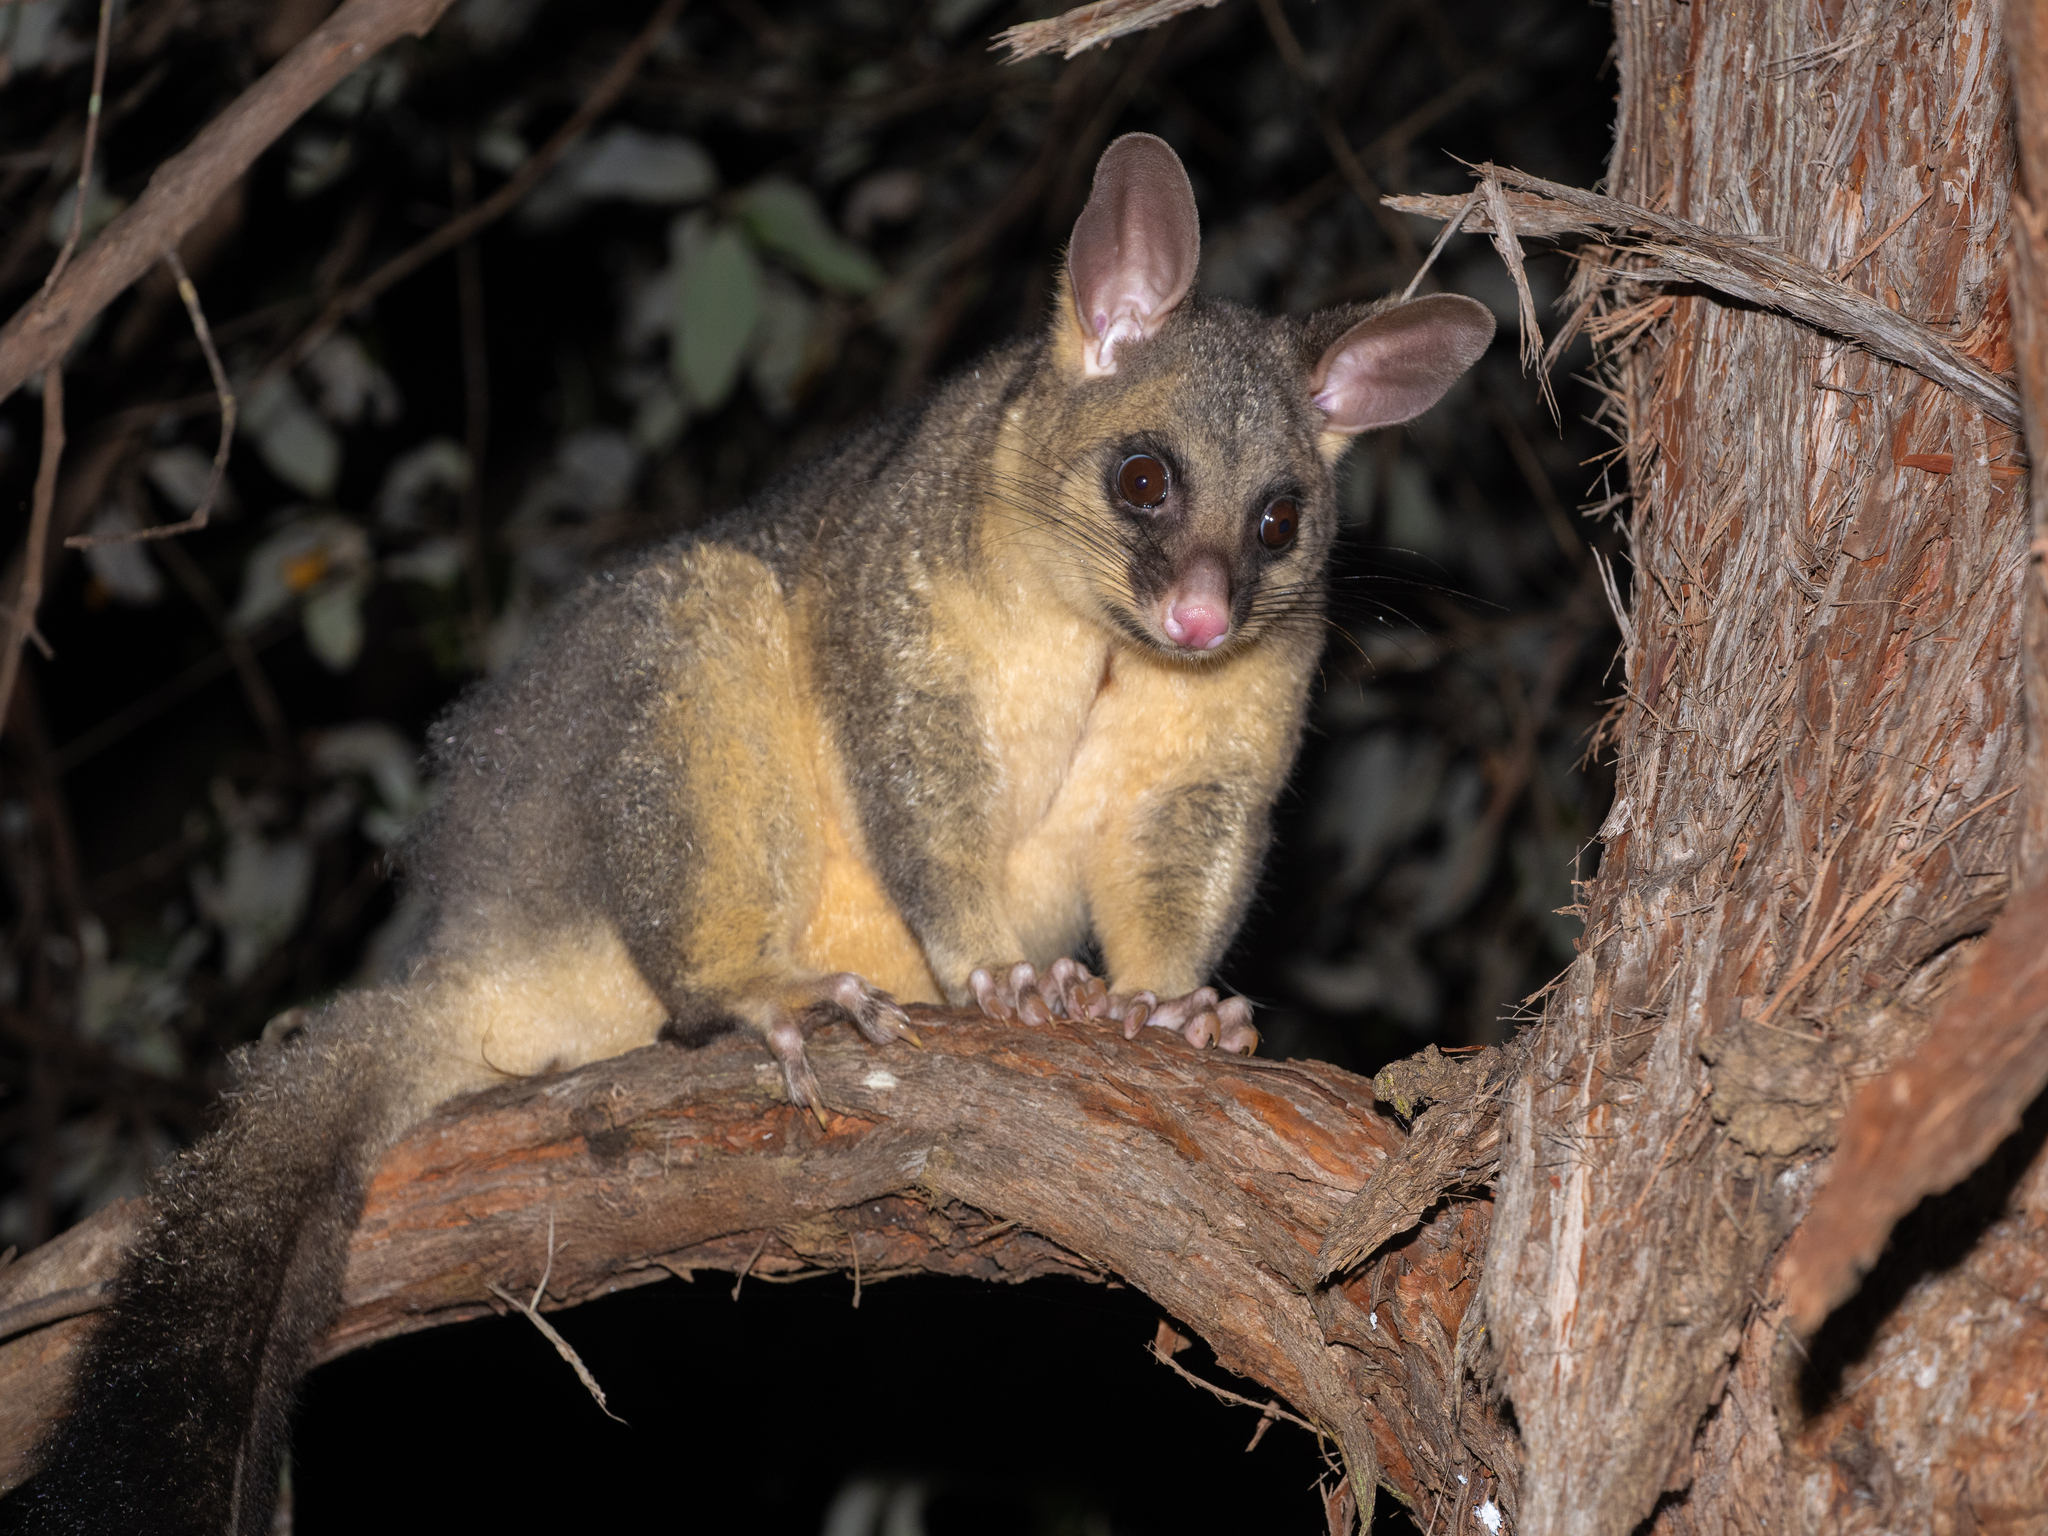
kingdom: Animalia
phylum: Chordata
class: Mammalia
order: Diprotodontia
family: Phalangeridae
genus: Trichosurus
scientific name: Trichosurus vulpecula
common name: Common brushtail
